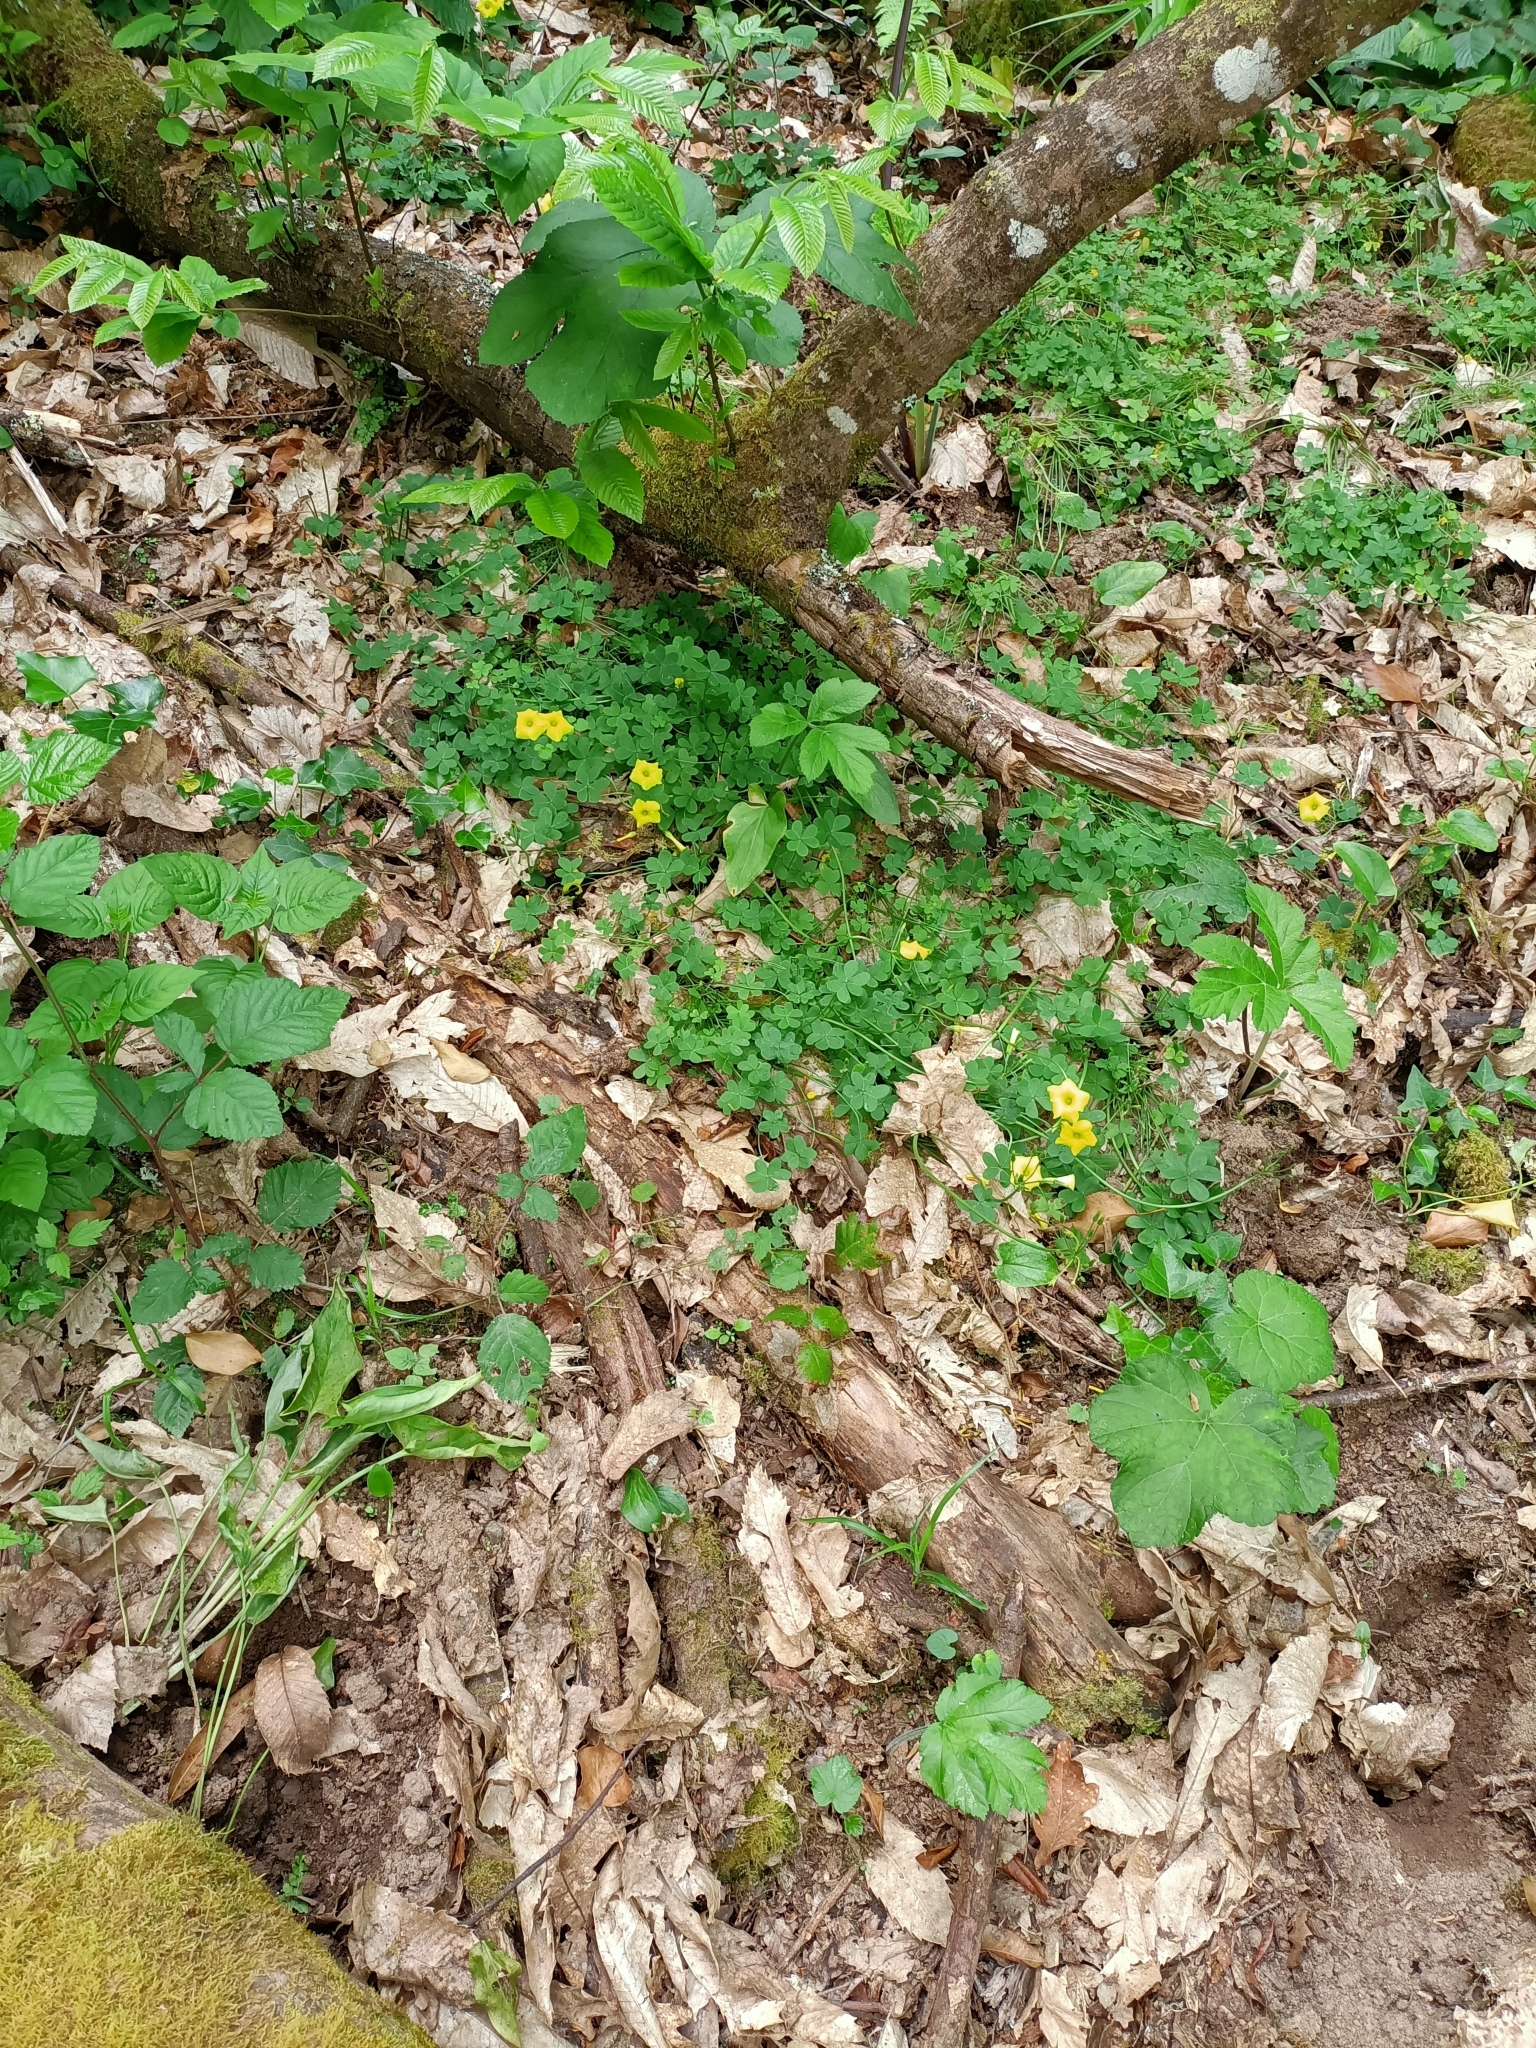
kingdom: Plantae
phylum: Tracheophyta
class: Magnoliopsida
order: Oxalidales
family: Oxalidaceae
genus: Oxalis
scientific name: Oxalis pes-caprae
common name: Bermuda-buttercup
